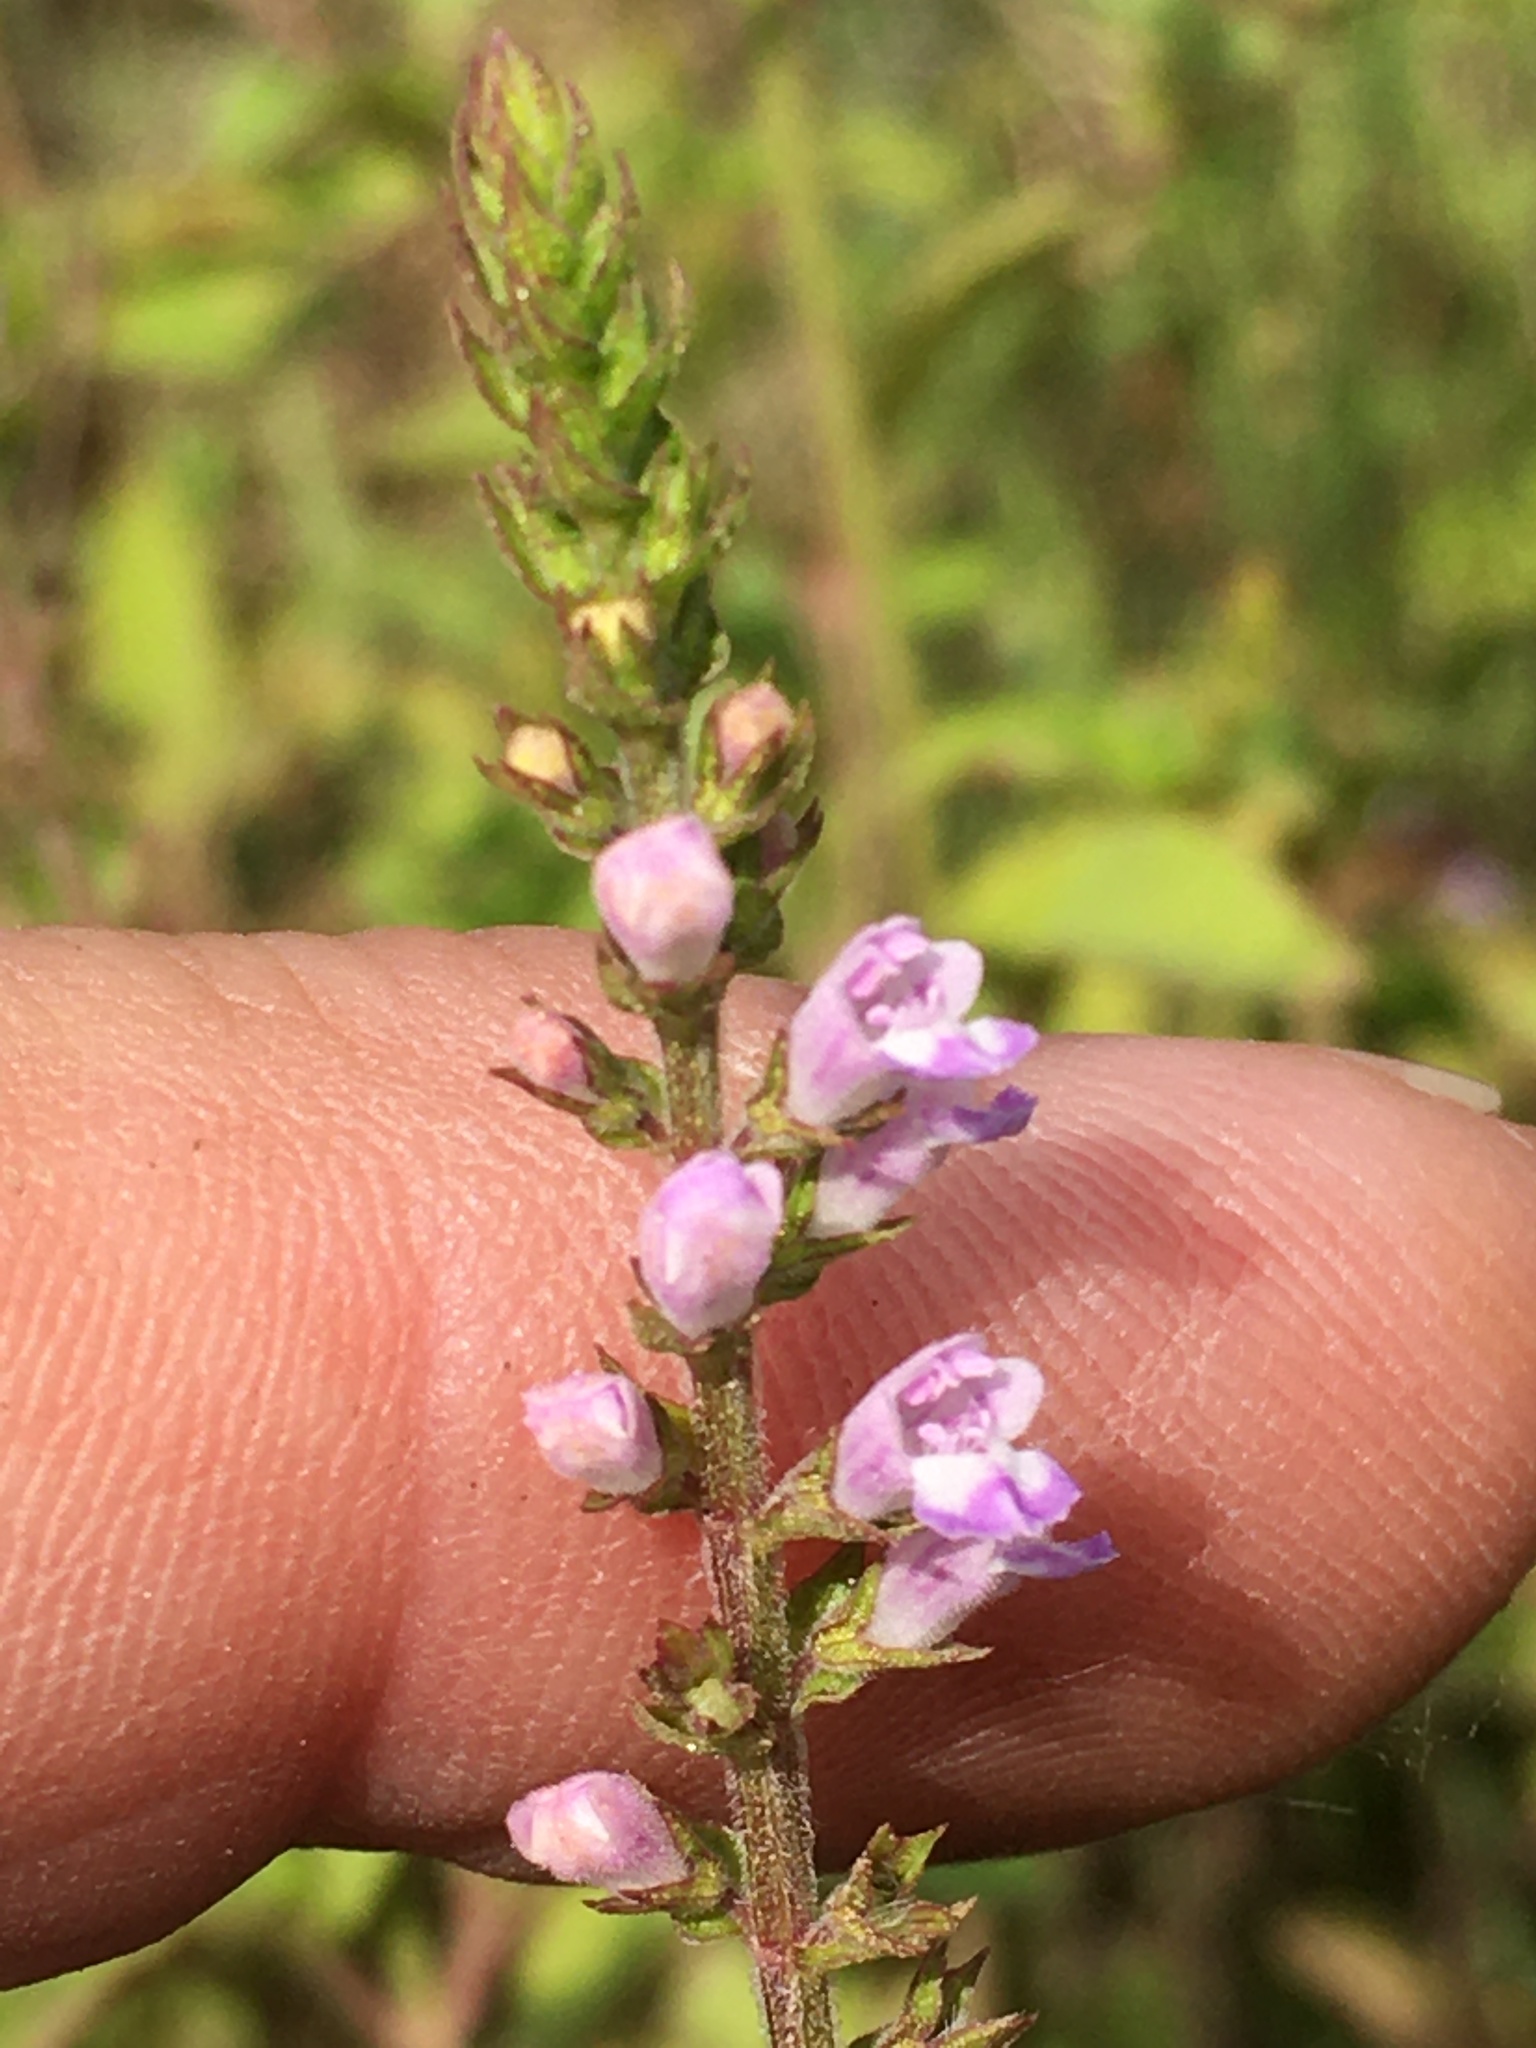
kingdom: Plantae
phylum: Tracheophyta
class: Magnoliopsida
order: Lamiales
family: Lamiaceae
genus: Mosla
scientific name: Mosla dianthera
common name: Miniature beefsteakplant
